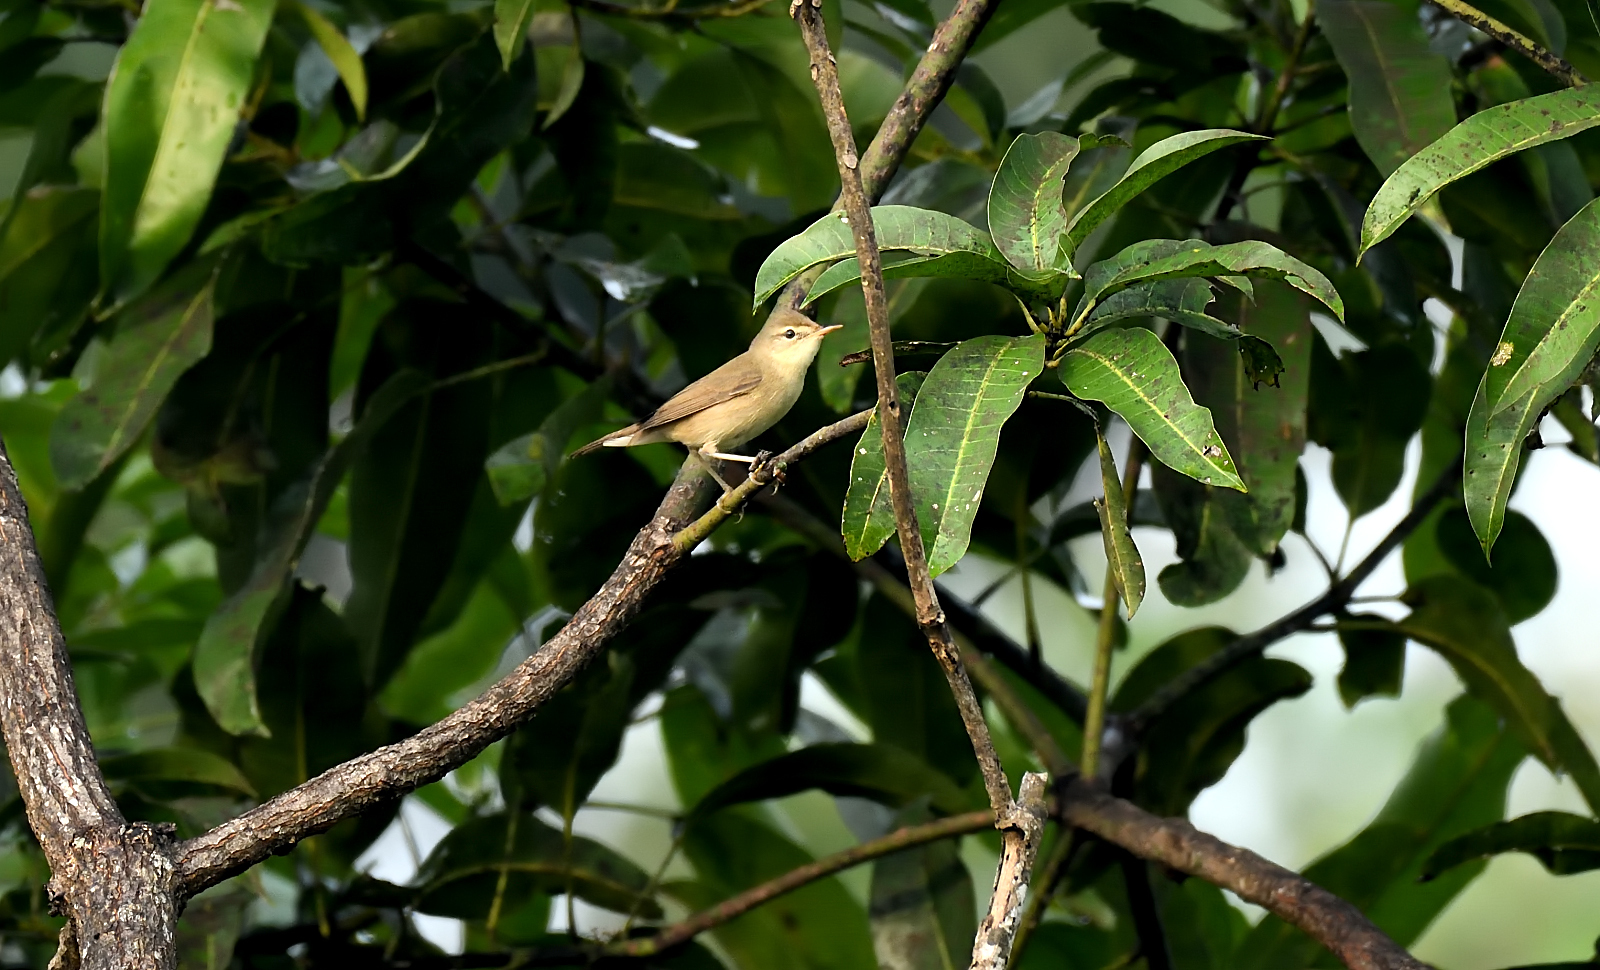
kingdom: Animalia
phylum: Chordata
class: Aves
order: Passeriformes
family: Acrocephalidae
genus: Acrocephalus
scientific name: Acrocephalus dumetorum
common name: Blyth's reed warbler
